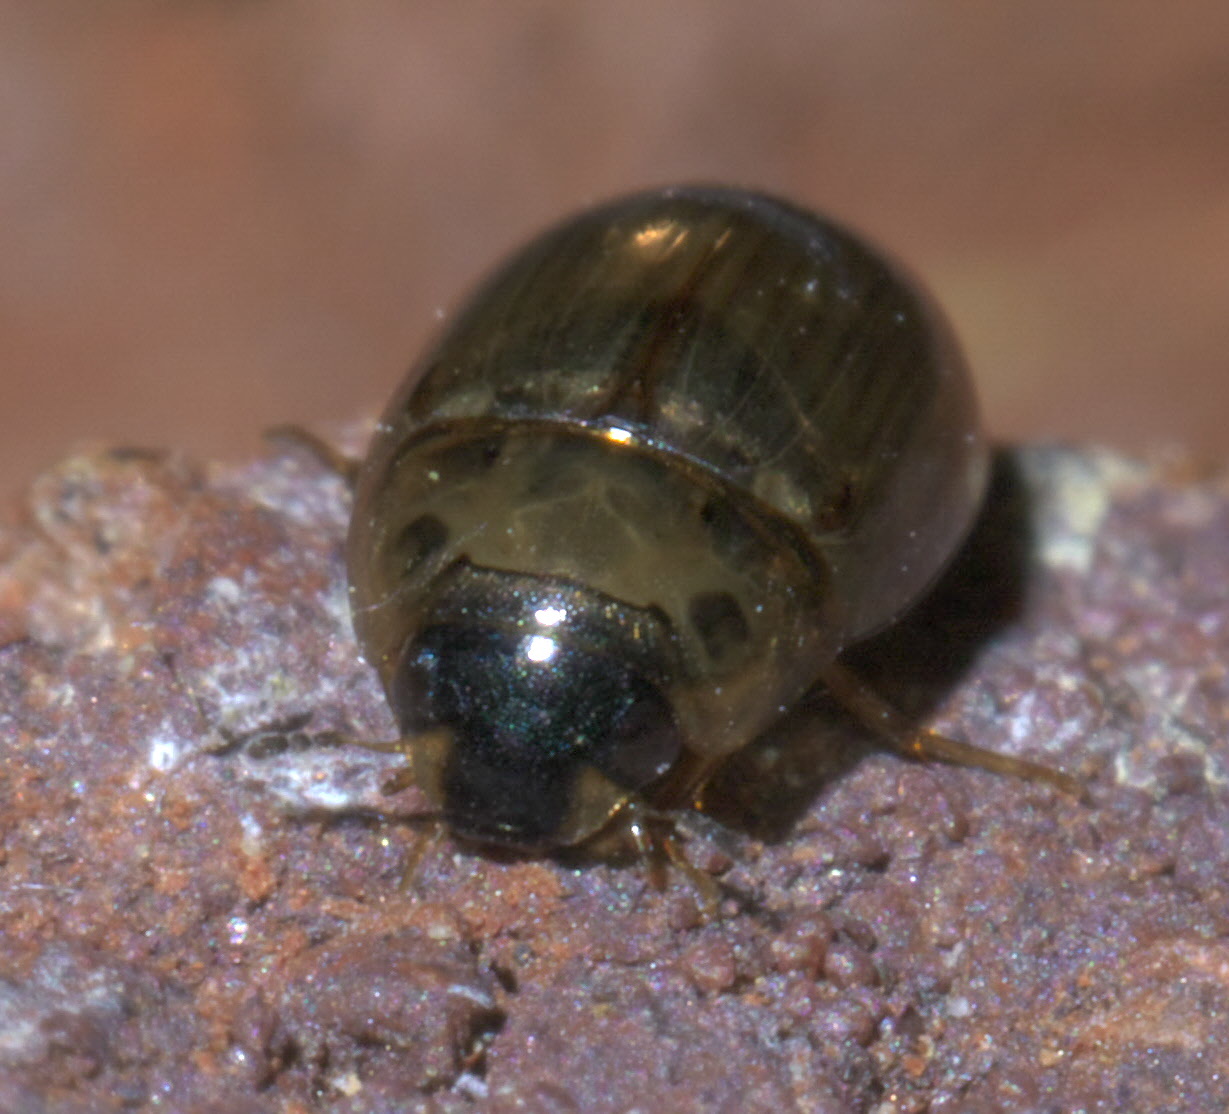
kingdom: Animalia
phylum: Arthropoda
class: Insecta
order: Coleoptera
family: Hydrophilidae
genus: Enochrus
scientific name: Enochrus
